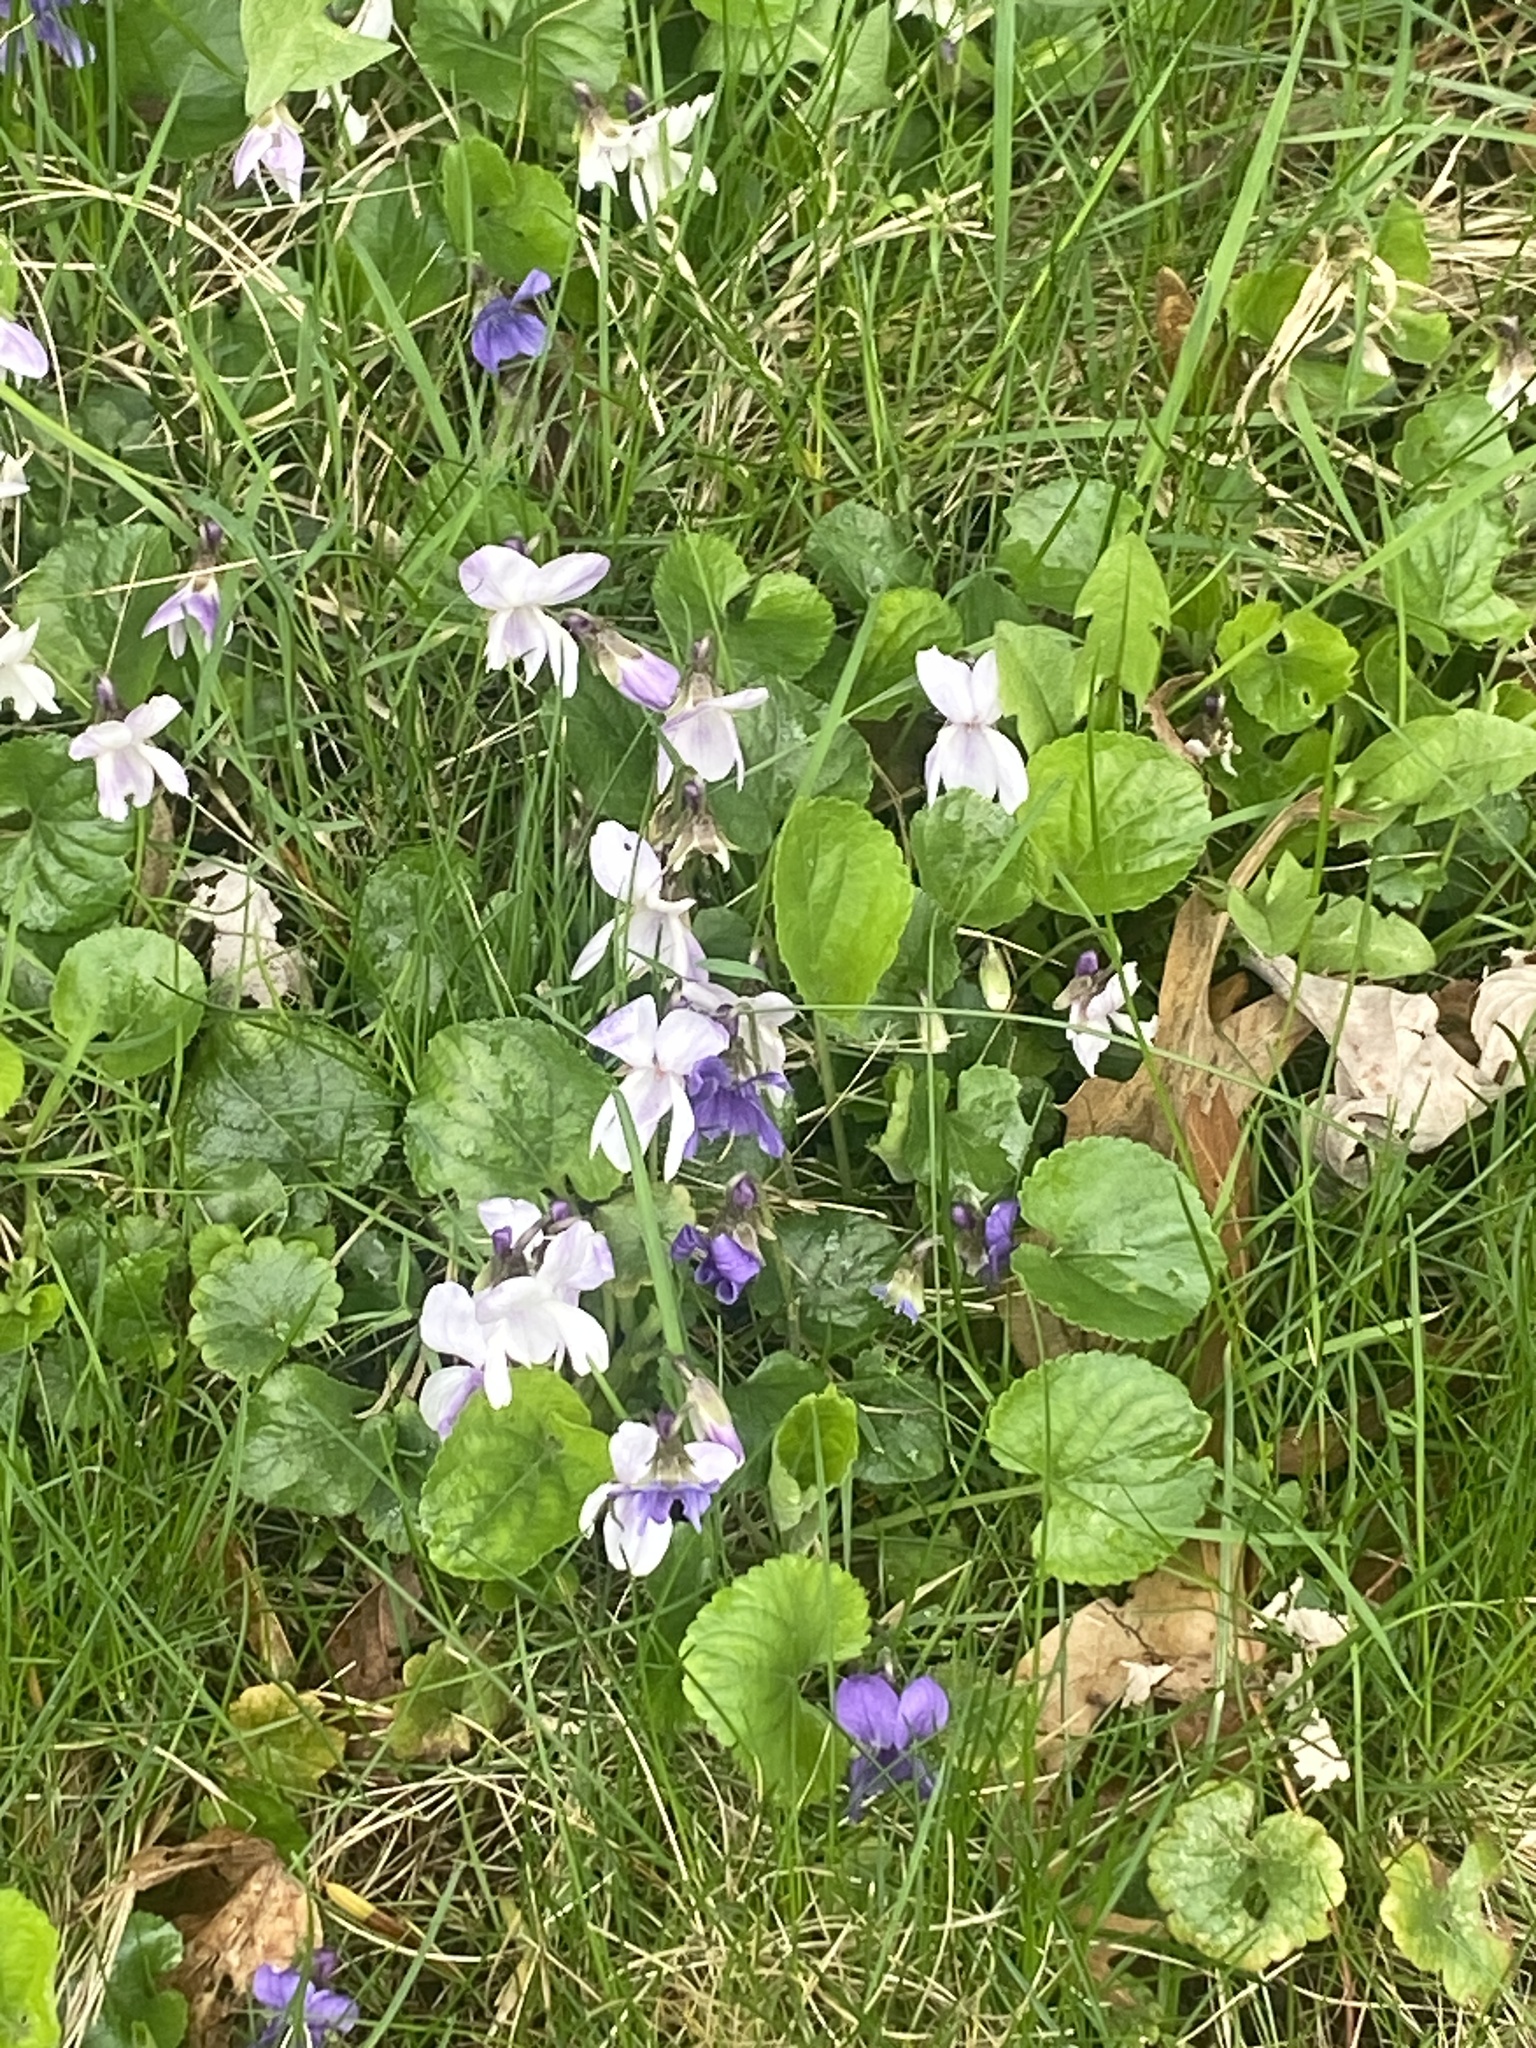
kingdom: Plantae
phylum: Tracheophyta
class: Magnoliopsida
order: Malpighiales
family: Violaceae
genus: Viola
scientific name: Viola odorata
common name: Sweet violet
